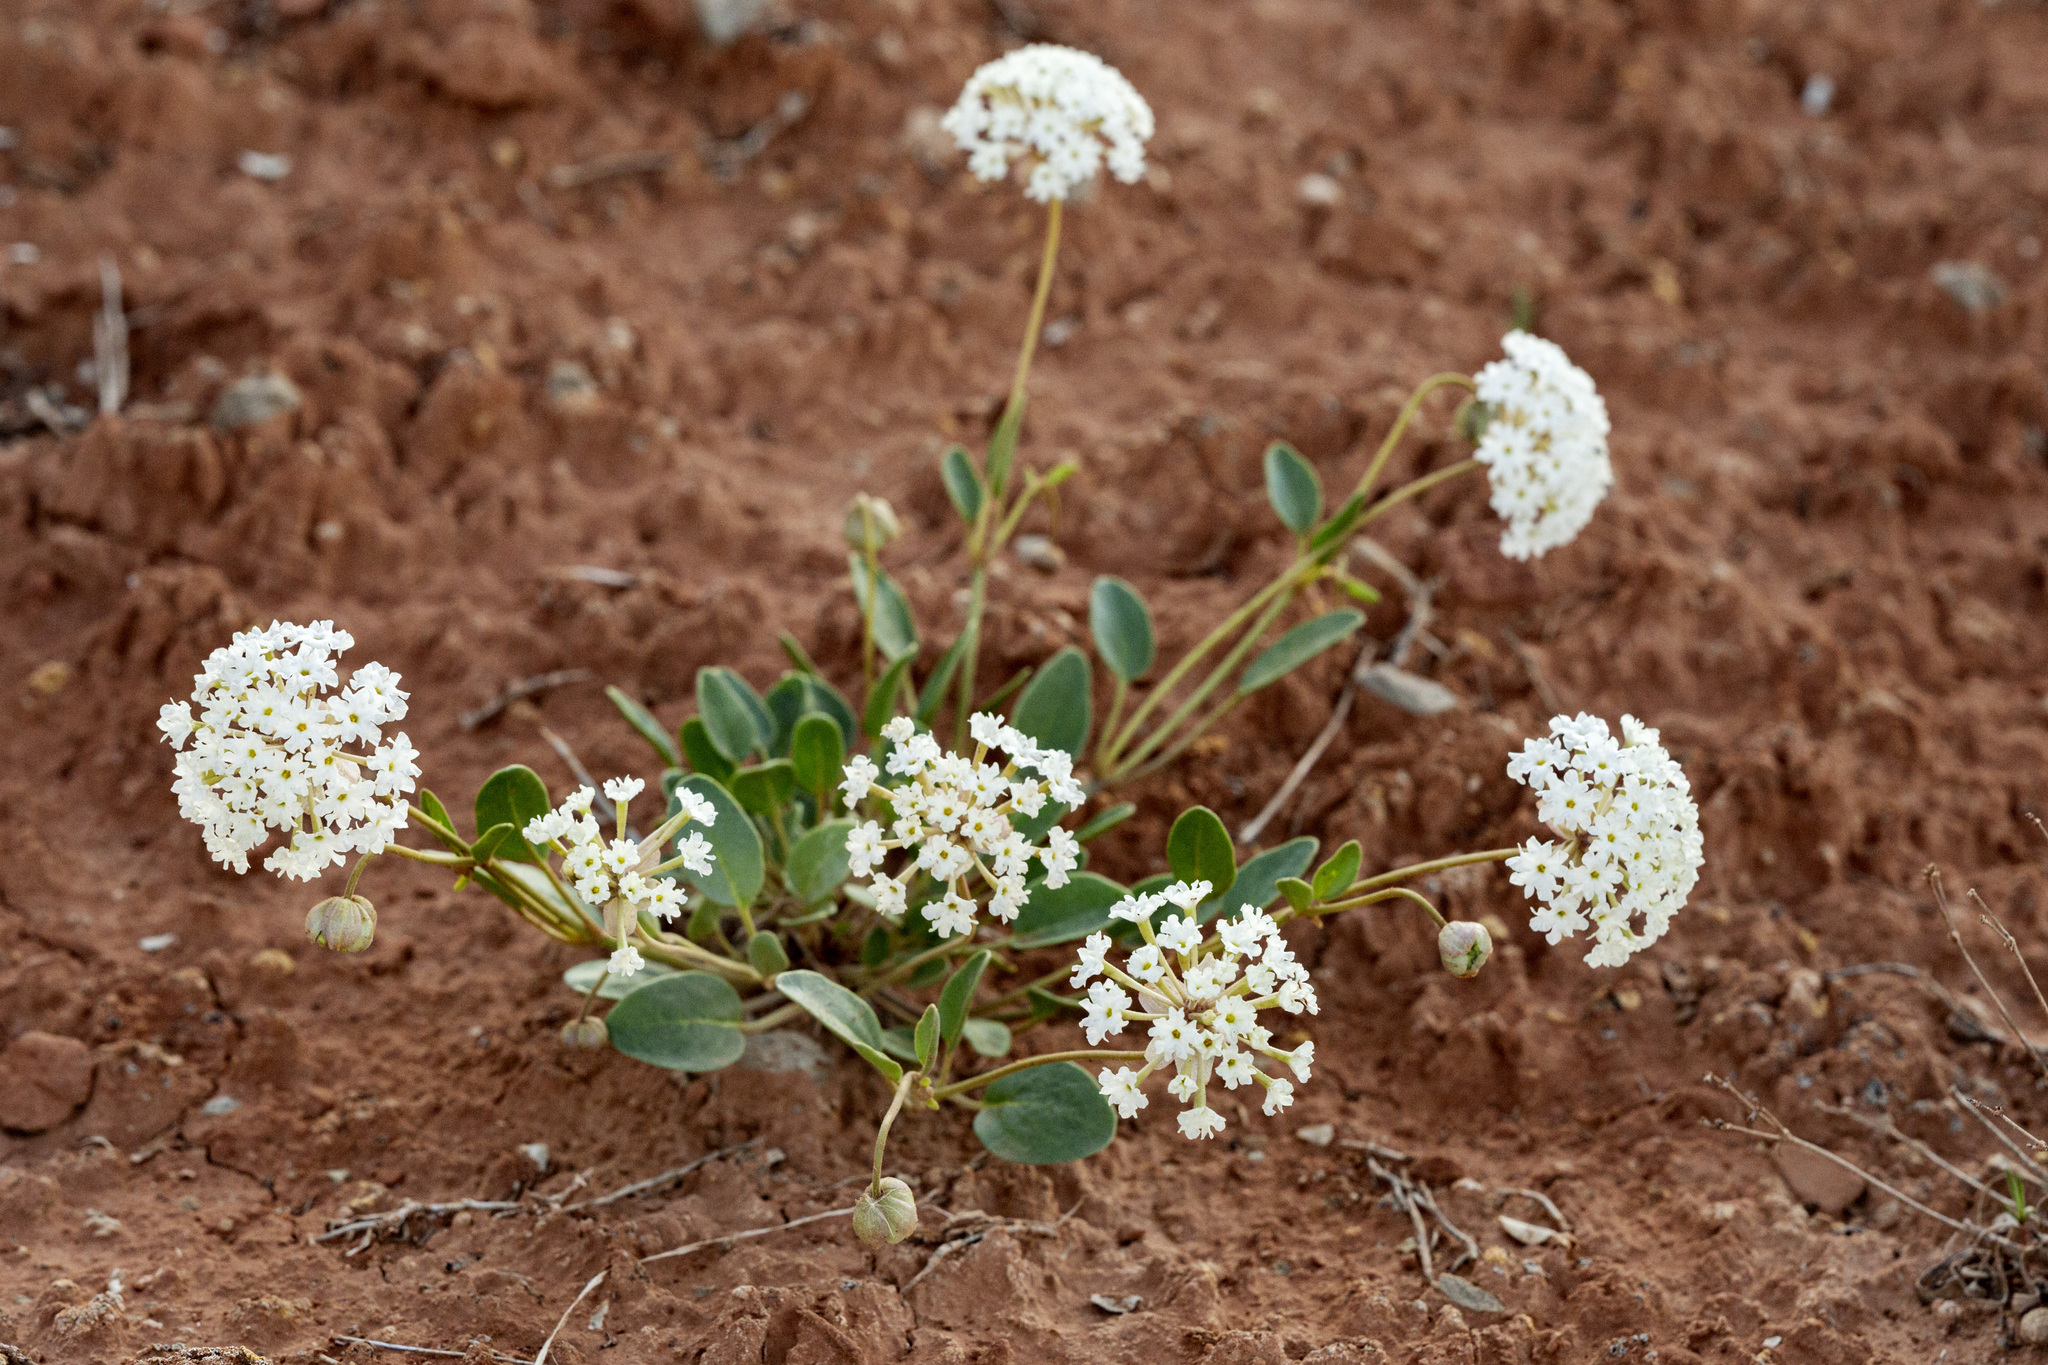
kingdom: Plantae
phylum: Tracheophyta
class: Magnoliopsida
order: Caryophyllales
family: Nyctaginaceae
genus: Abronia
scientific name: Abronia elliptica
